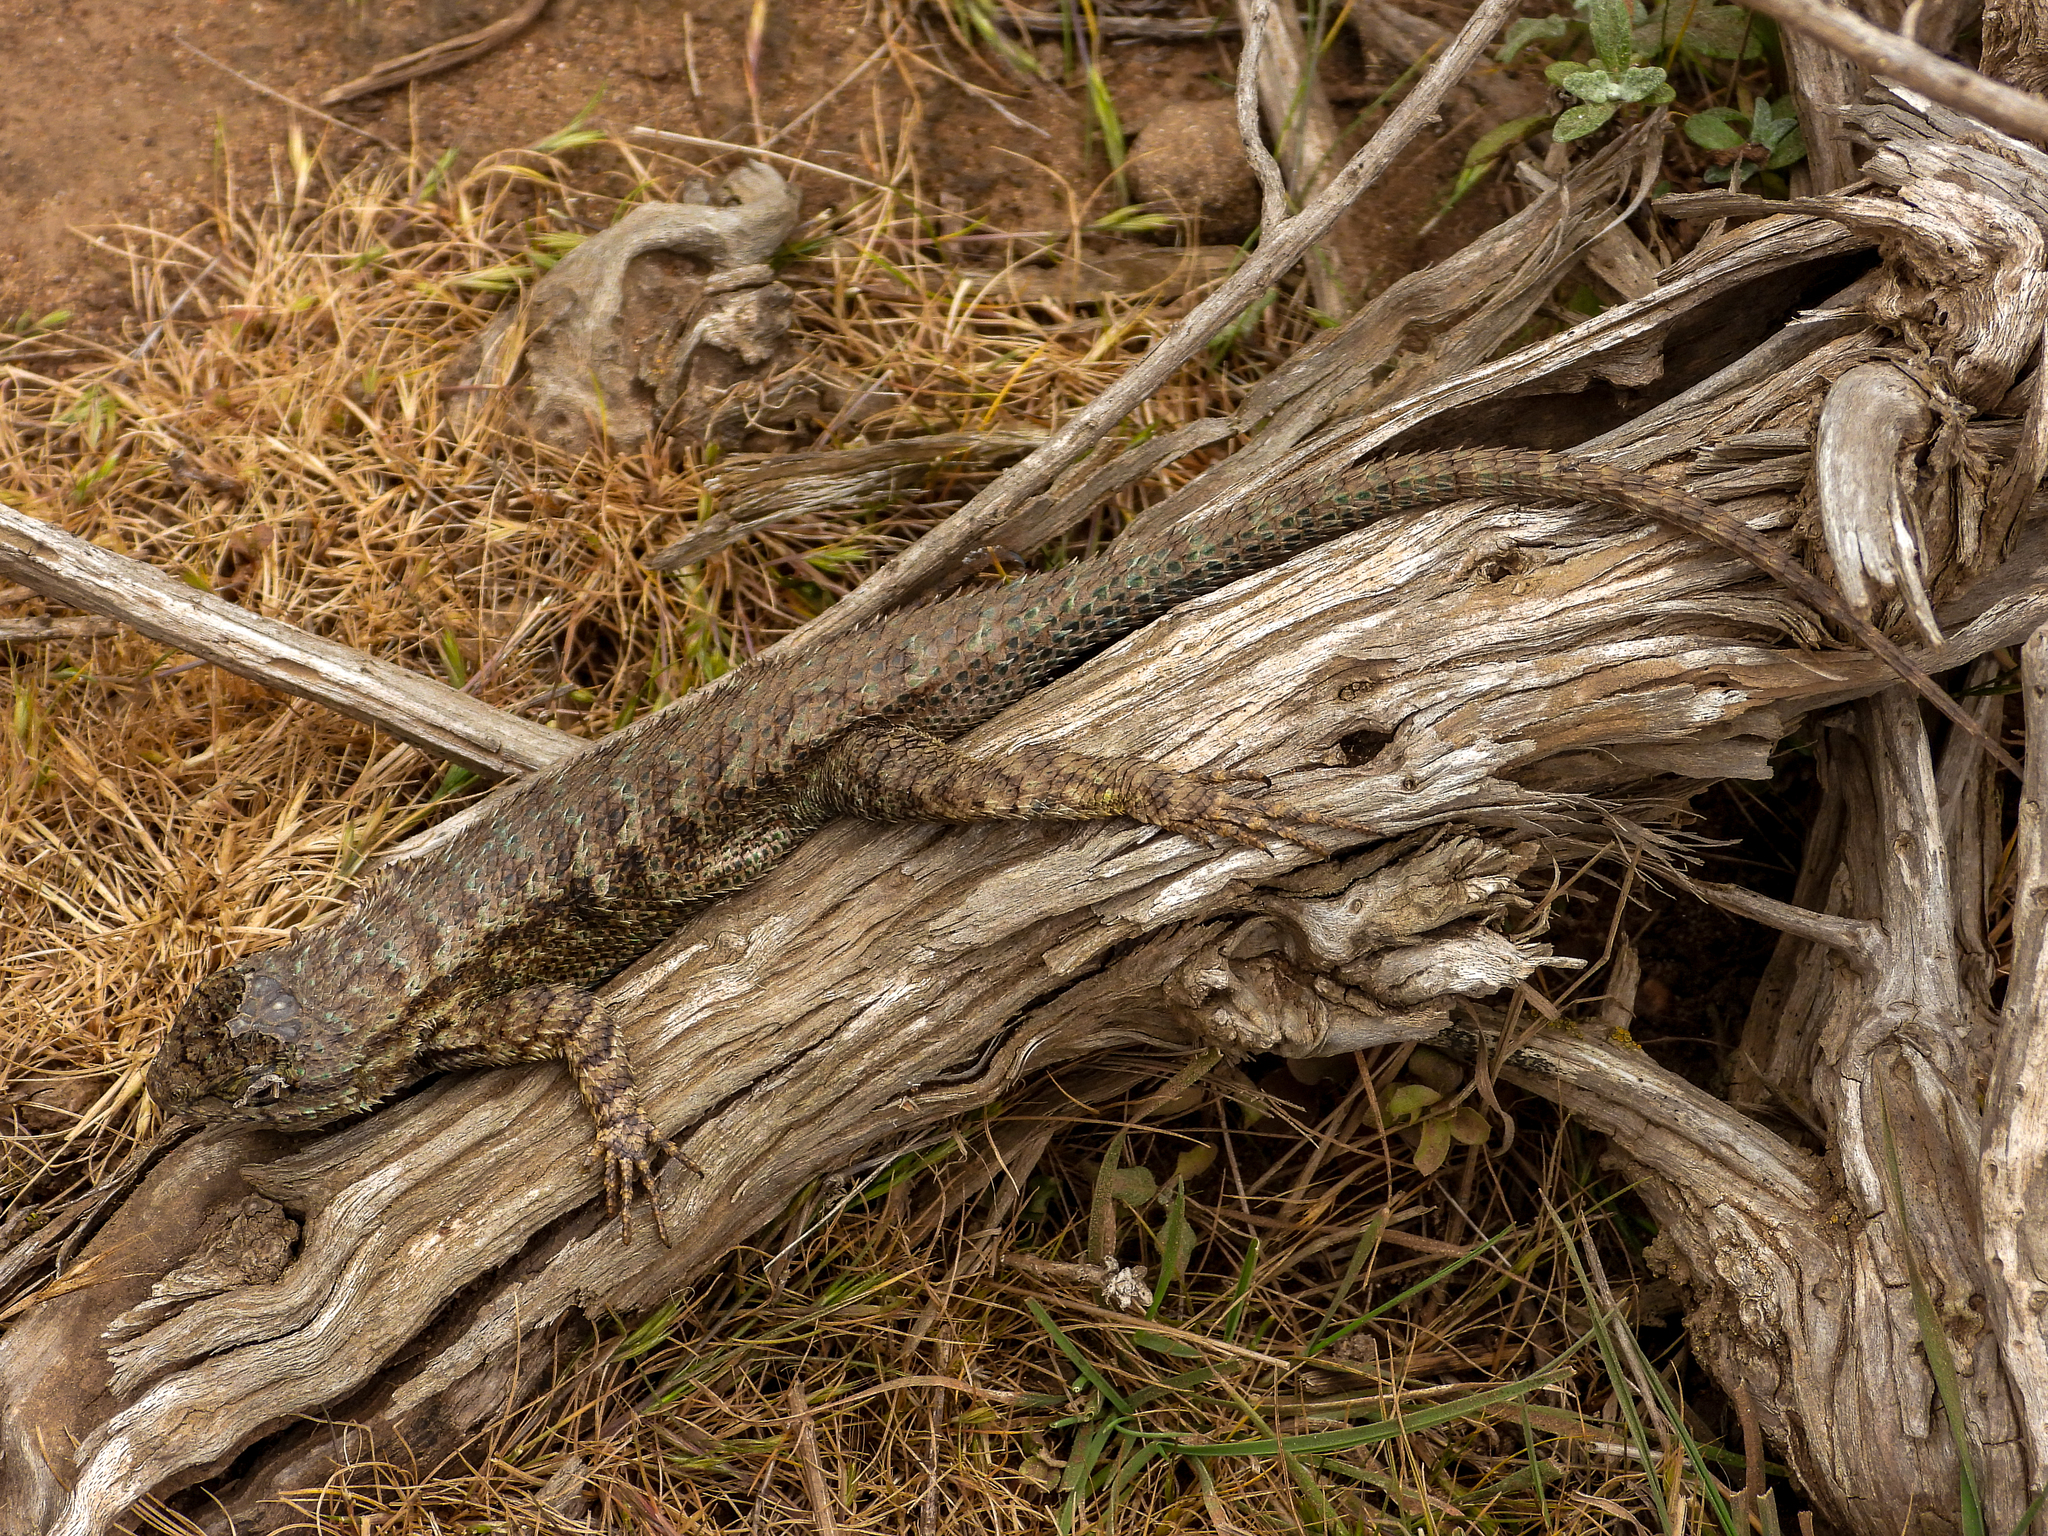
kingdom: Animalia
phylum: Chordata
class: Squamata
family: Phrynosomatidae
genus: Sceloporus
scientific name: Sceloporus occidentalis
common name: Western fence lizard
